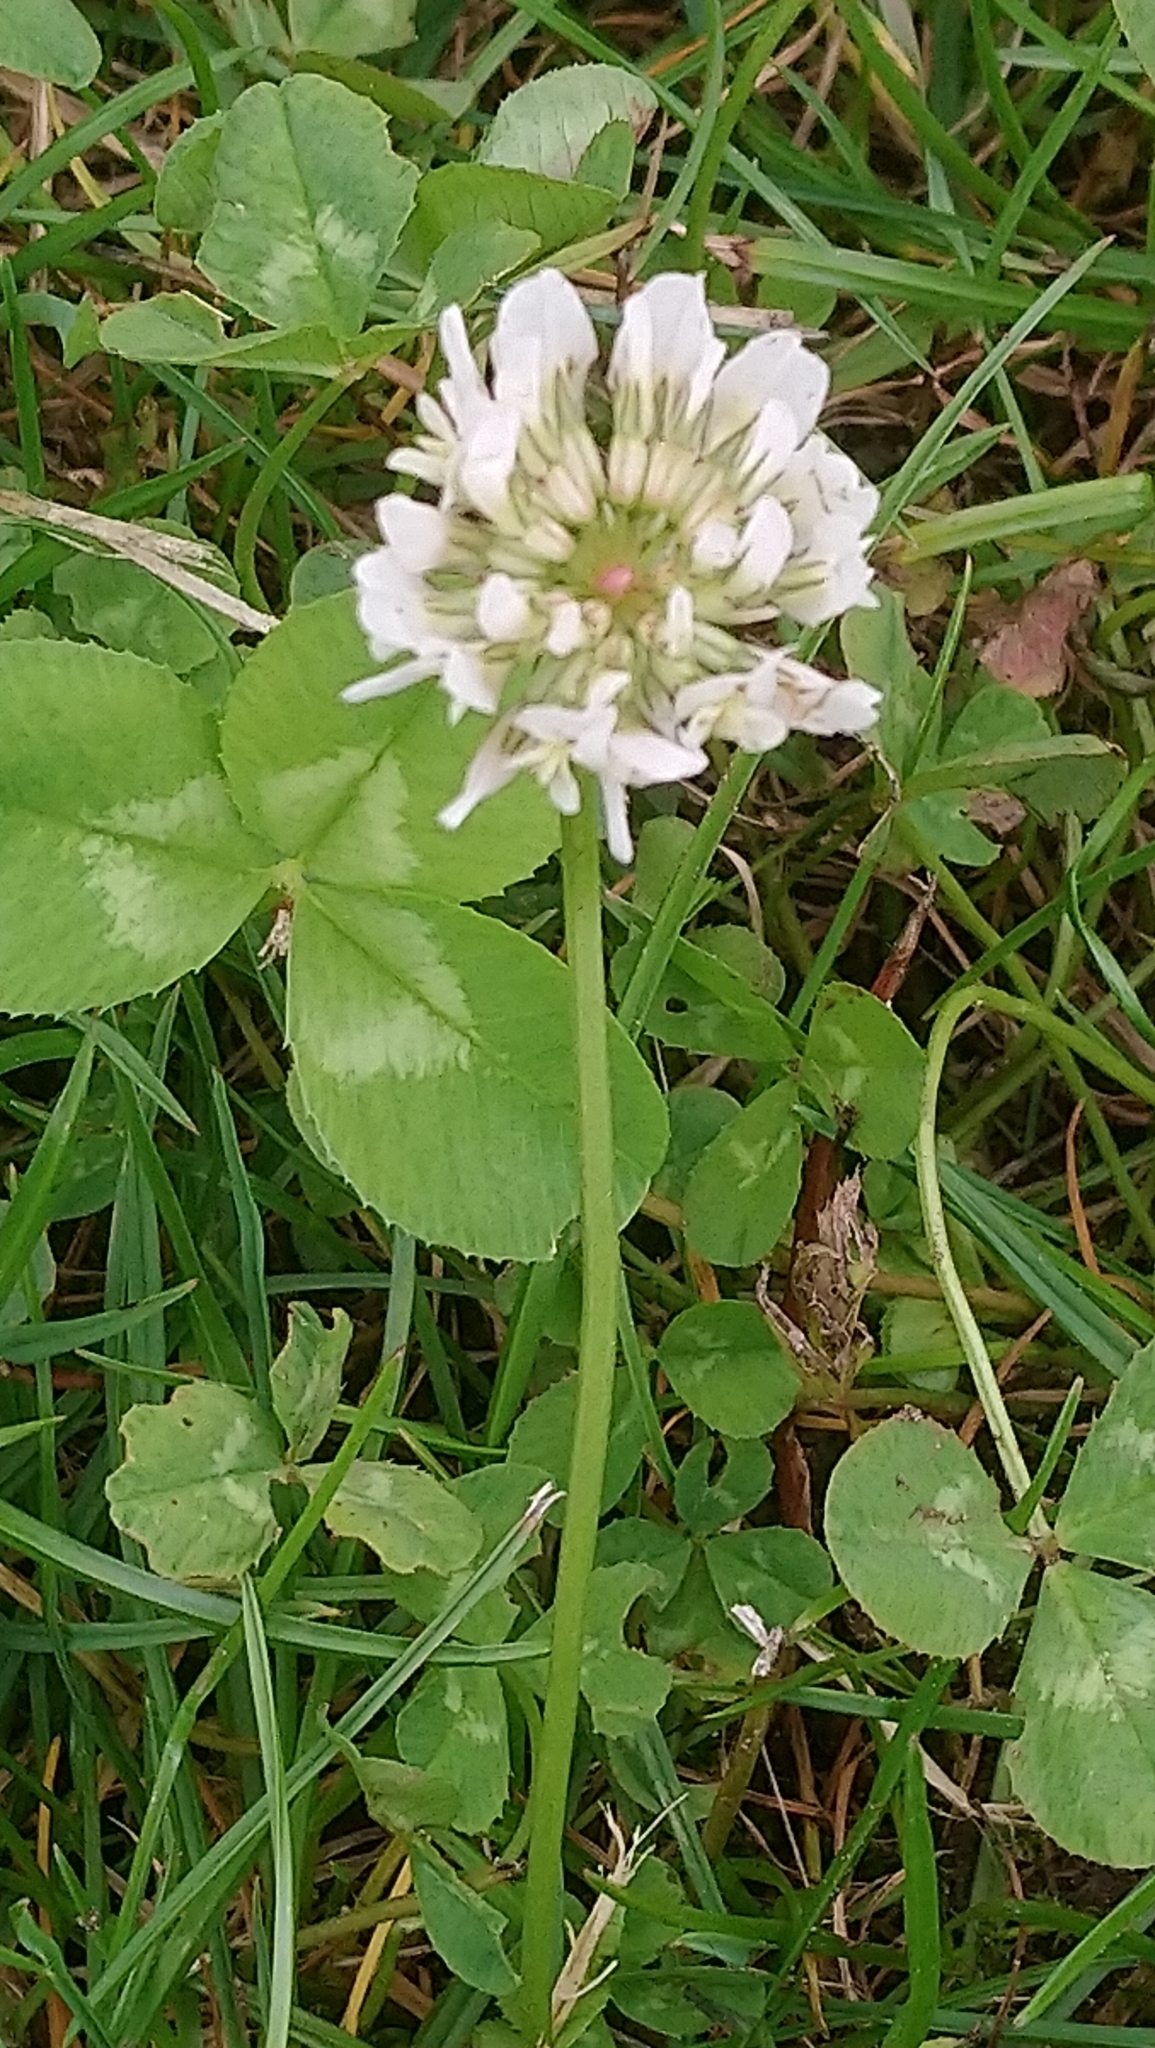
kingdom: Plantae
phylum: Tracheophyta
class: Magnoliopsida
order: Fabales
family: Fabaceae
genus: Trifolium
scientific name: Trifolium repens
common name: White clover
